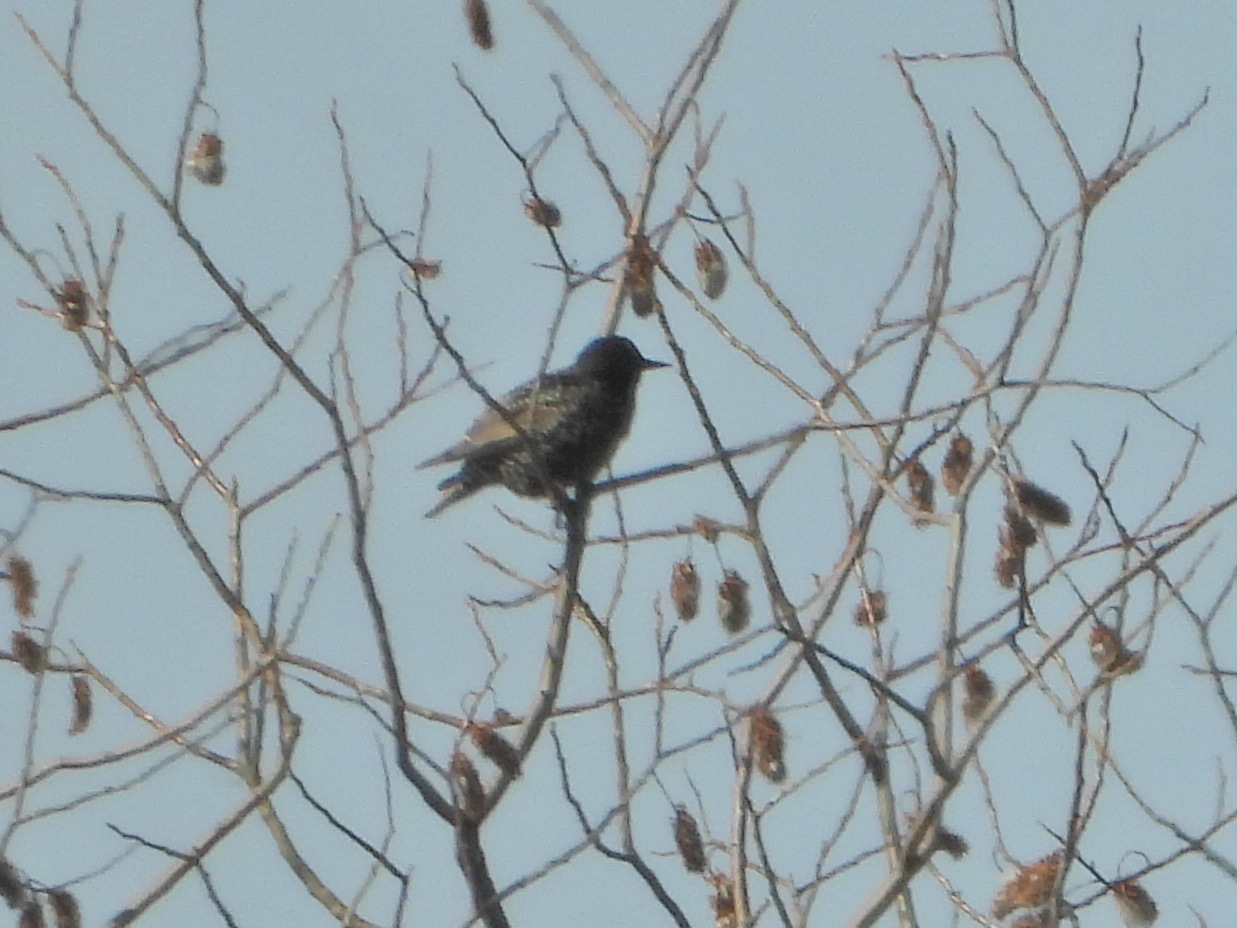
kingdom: Animalia
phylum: Chordata
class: Aves
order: Passeriformes
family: Sturnidae
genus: Sturnus
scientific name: Sturnus vulgaris
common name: Common starling
